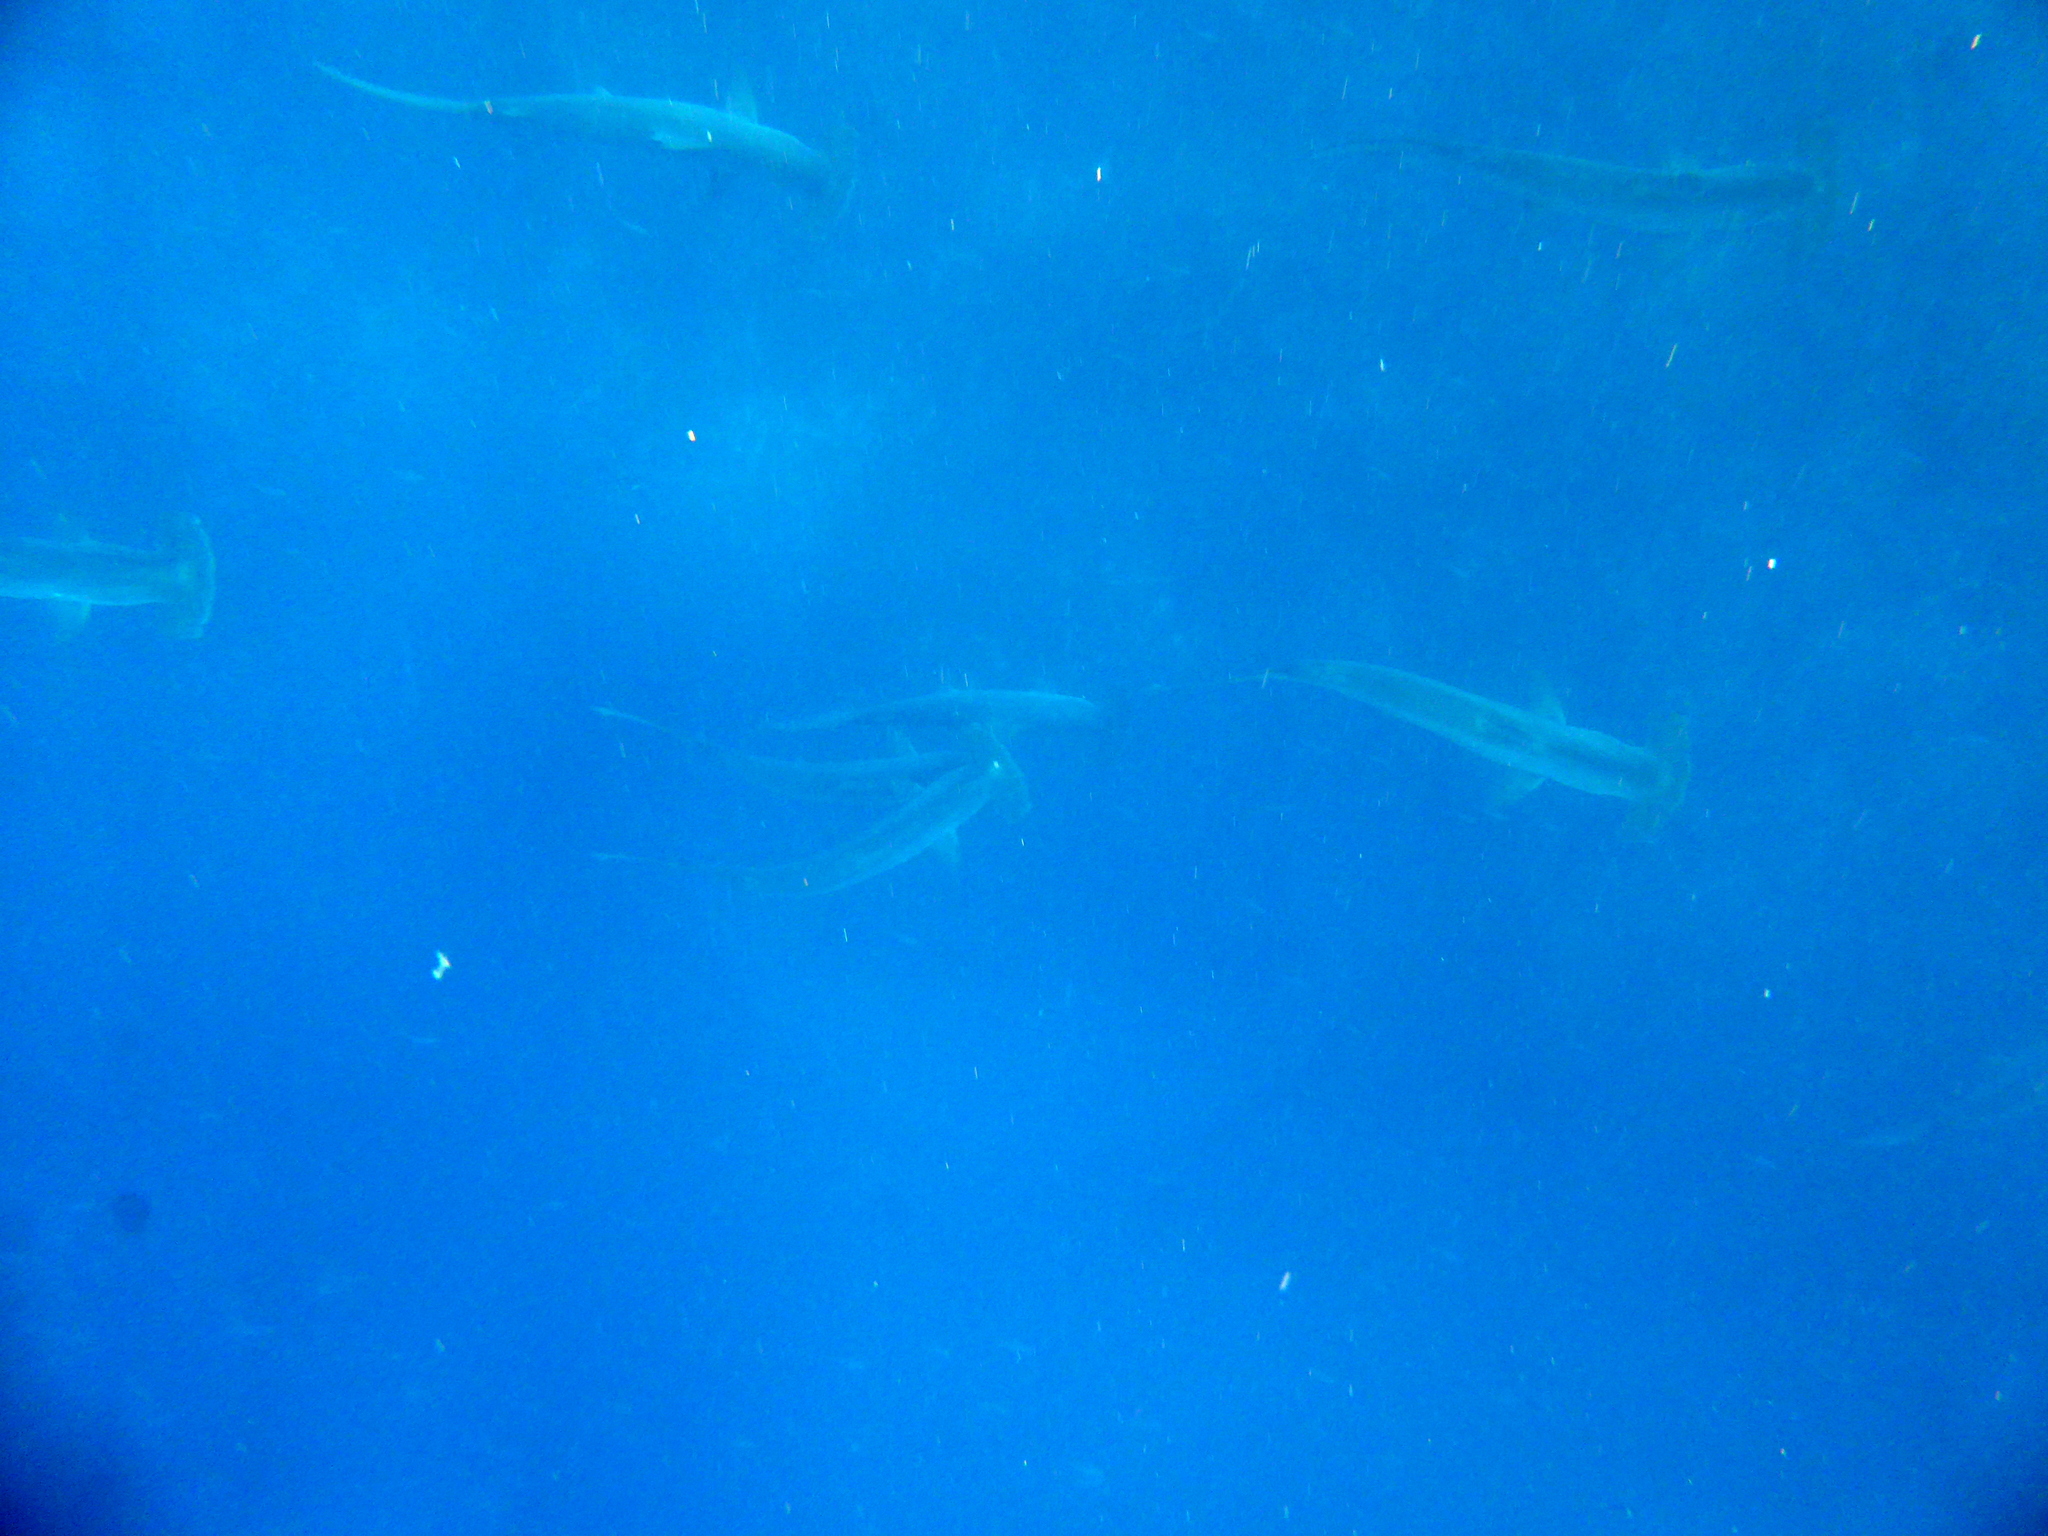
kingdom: Animalia
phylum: Chordata
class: Elasmobranchii
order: Carcharhiniformes
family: Sphyrnidae
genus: Sphyrna
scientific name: Sphyrna lewini
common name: Scalloped hammerhead
